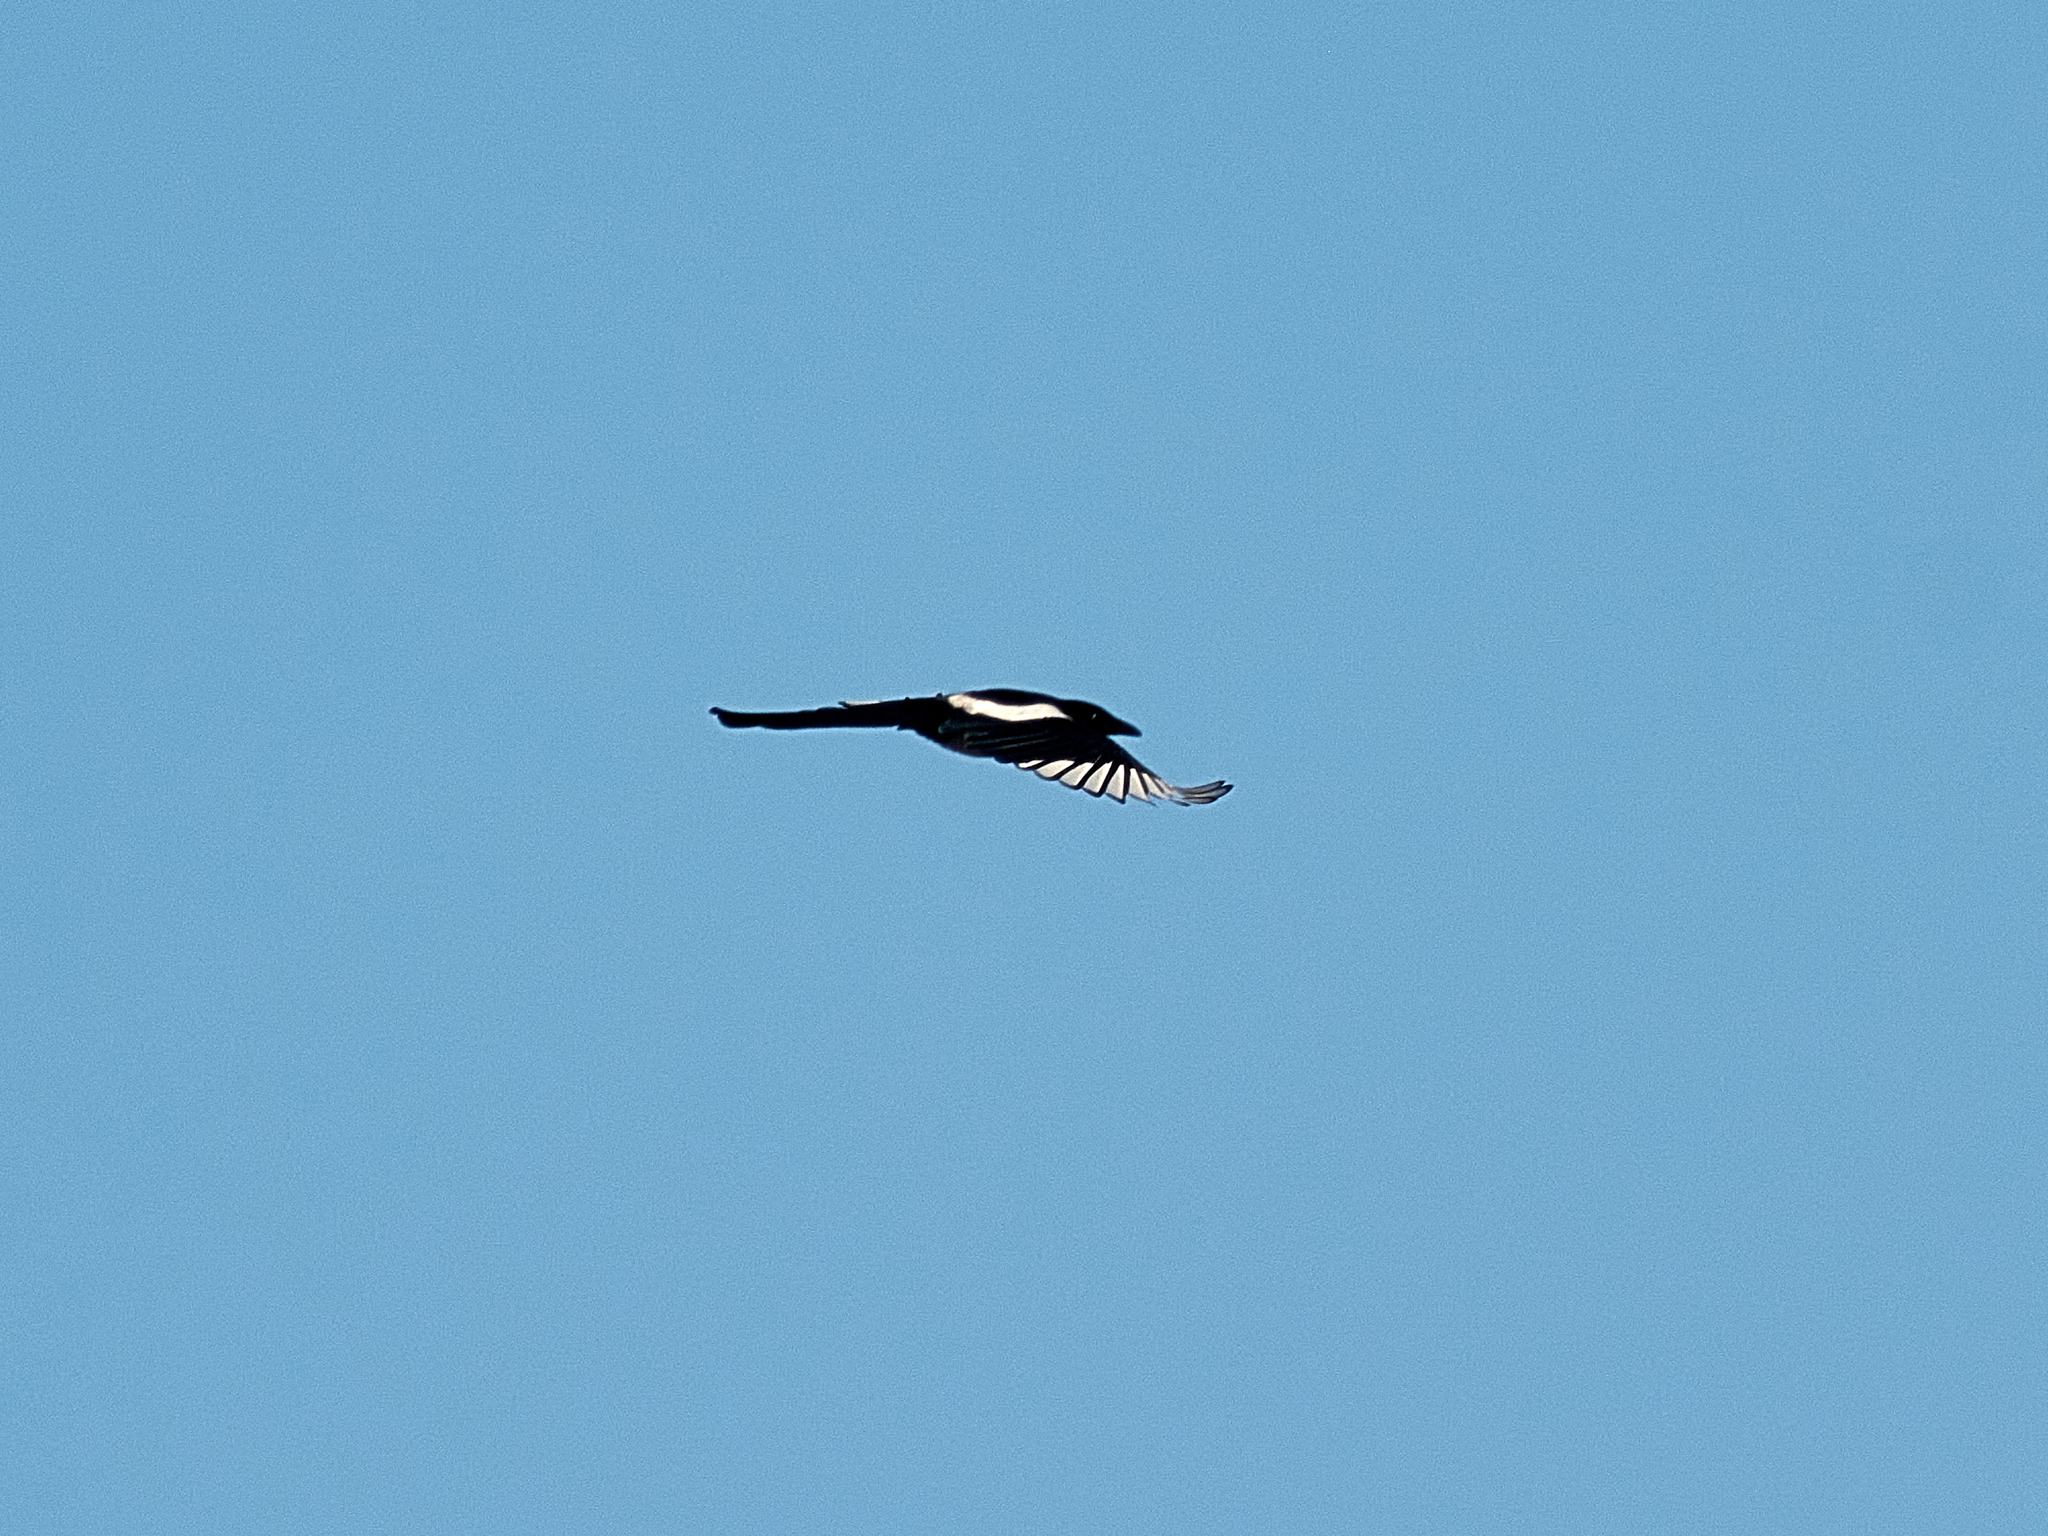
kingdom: Animalia
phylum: Chordata
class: Aves
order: Passeriformes
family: Corvidae
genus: Pica
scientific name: Pica pica
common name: Eurasian magpie
